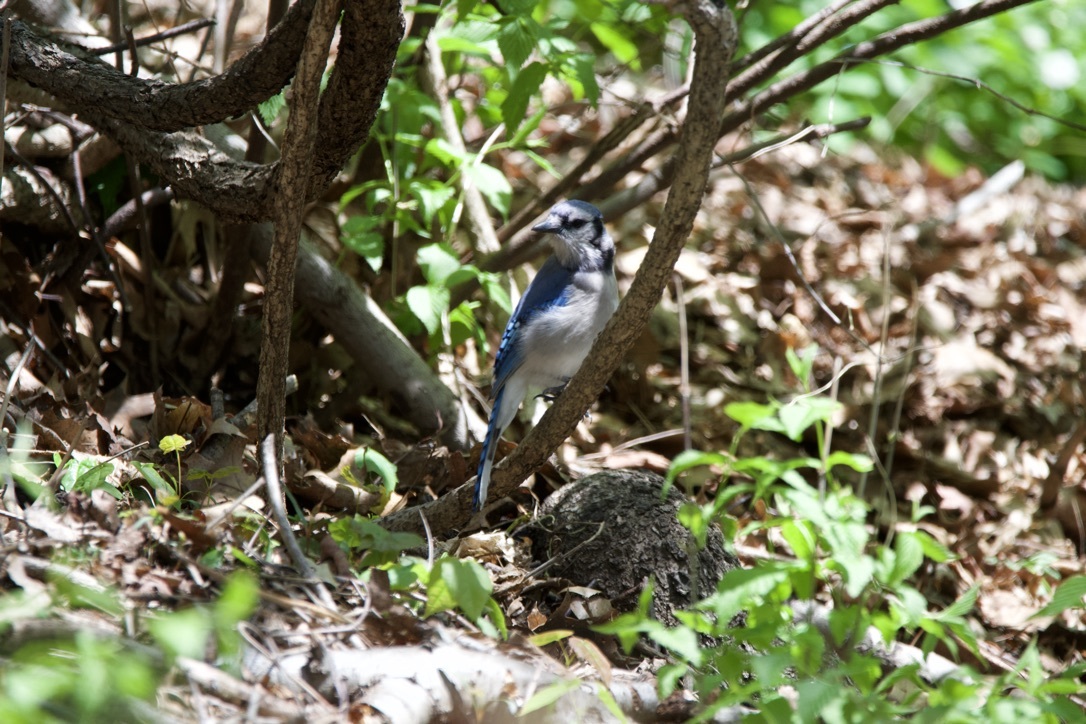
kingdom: Animalia
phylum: Chordata
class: Aves
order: Passeriformes
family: Corvidae
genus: Cyanocitta
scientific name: Cyanocitta cristata
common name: Blue jay
